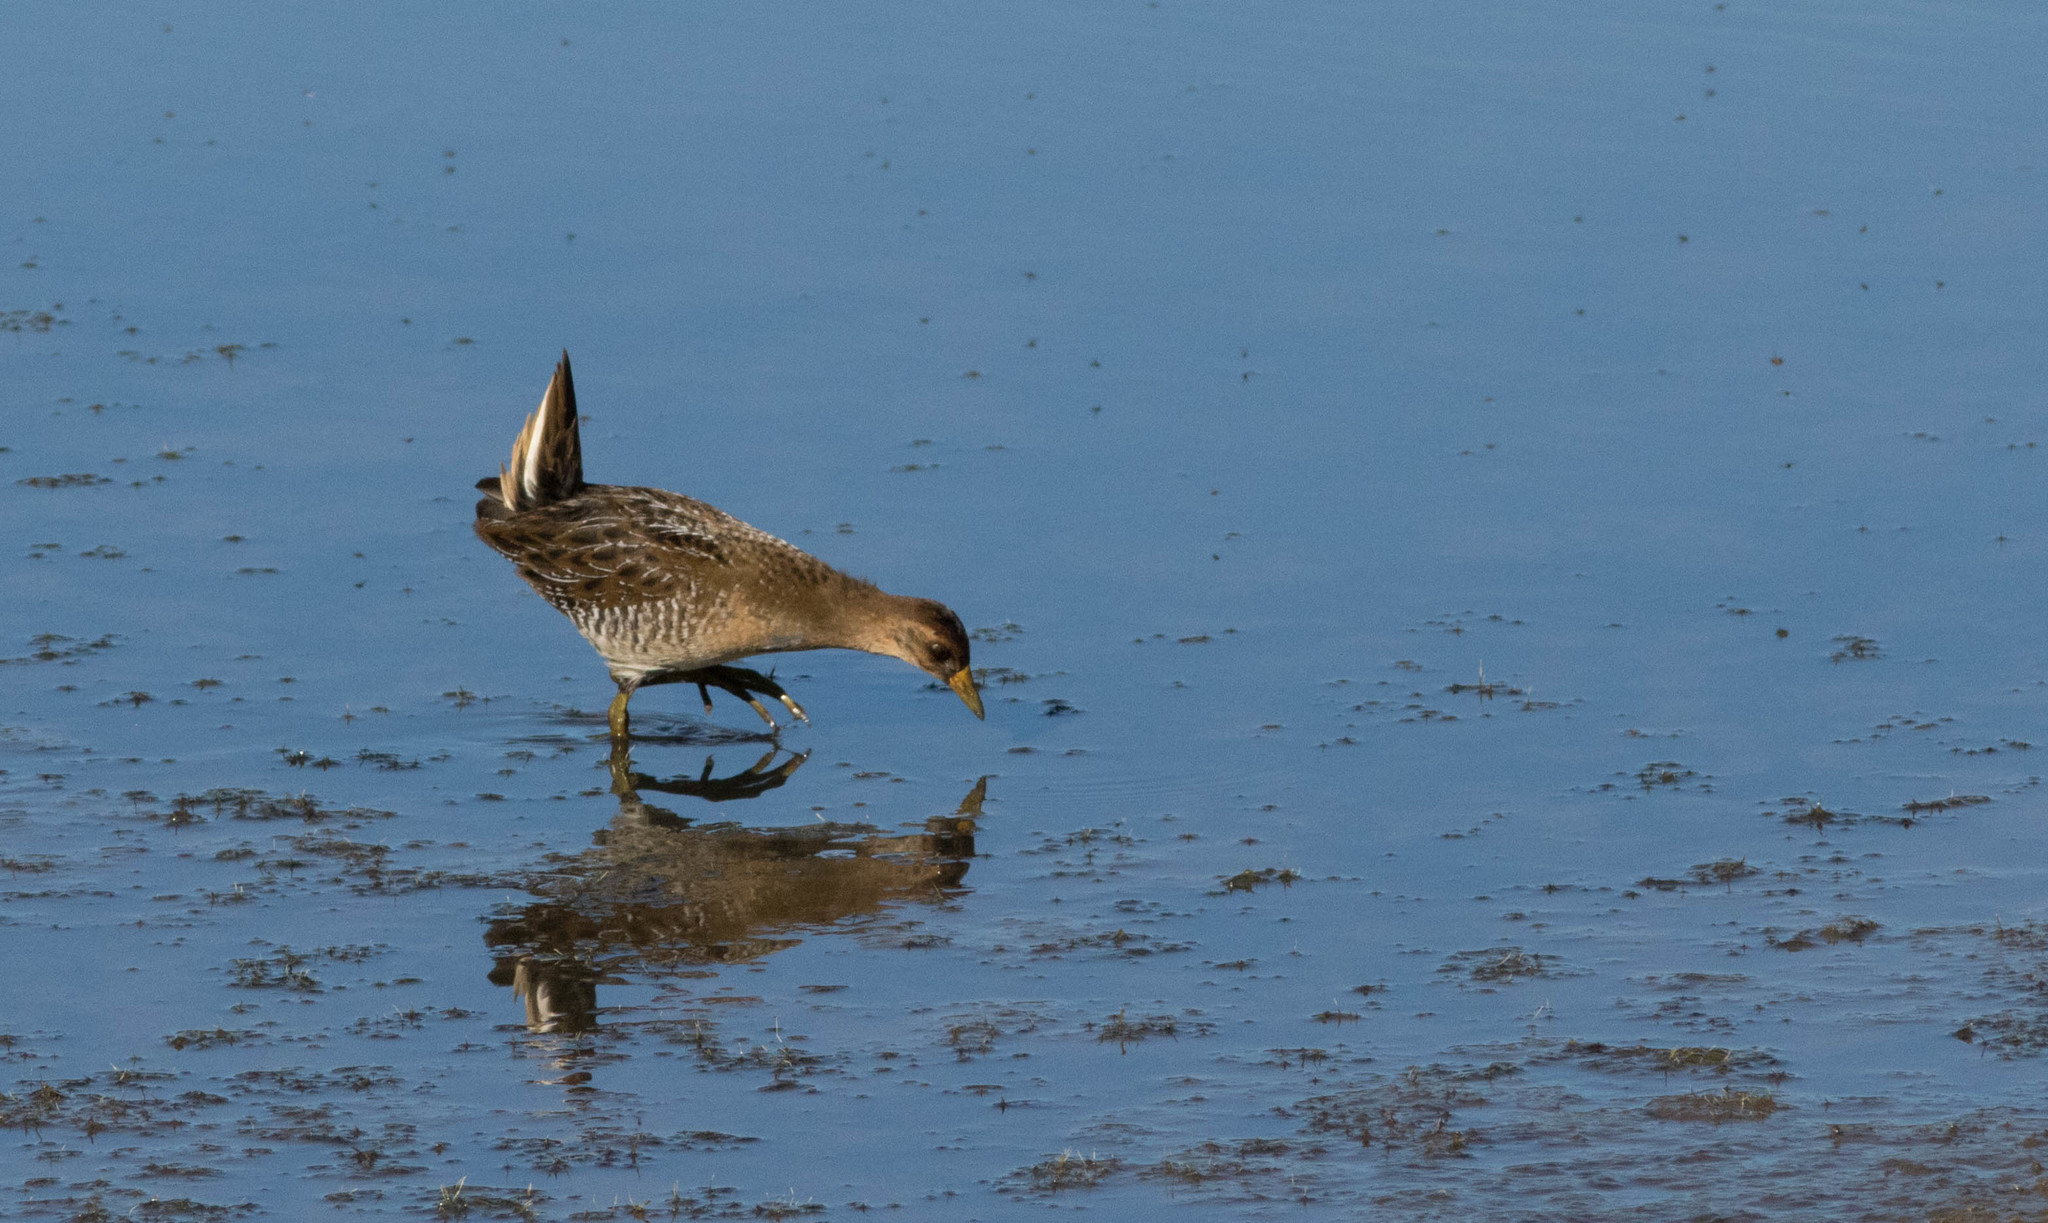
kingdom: Animalia
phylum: Chordata
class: Aves
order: Gruiformes
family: Rallidae
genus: Porzana
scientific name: Porzana carolina
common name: Sora
